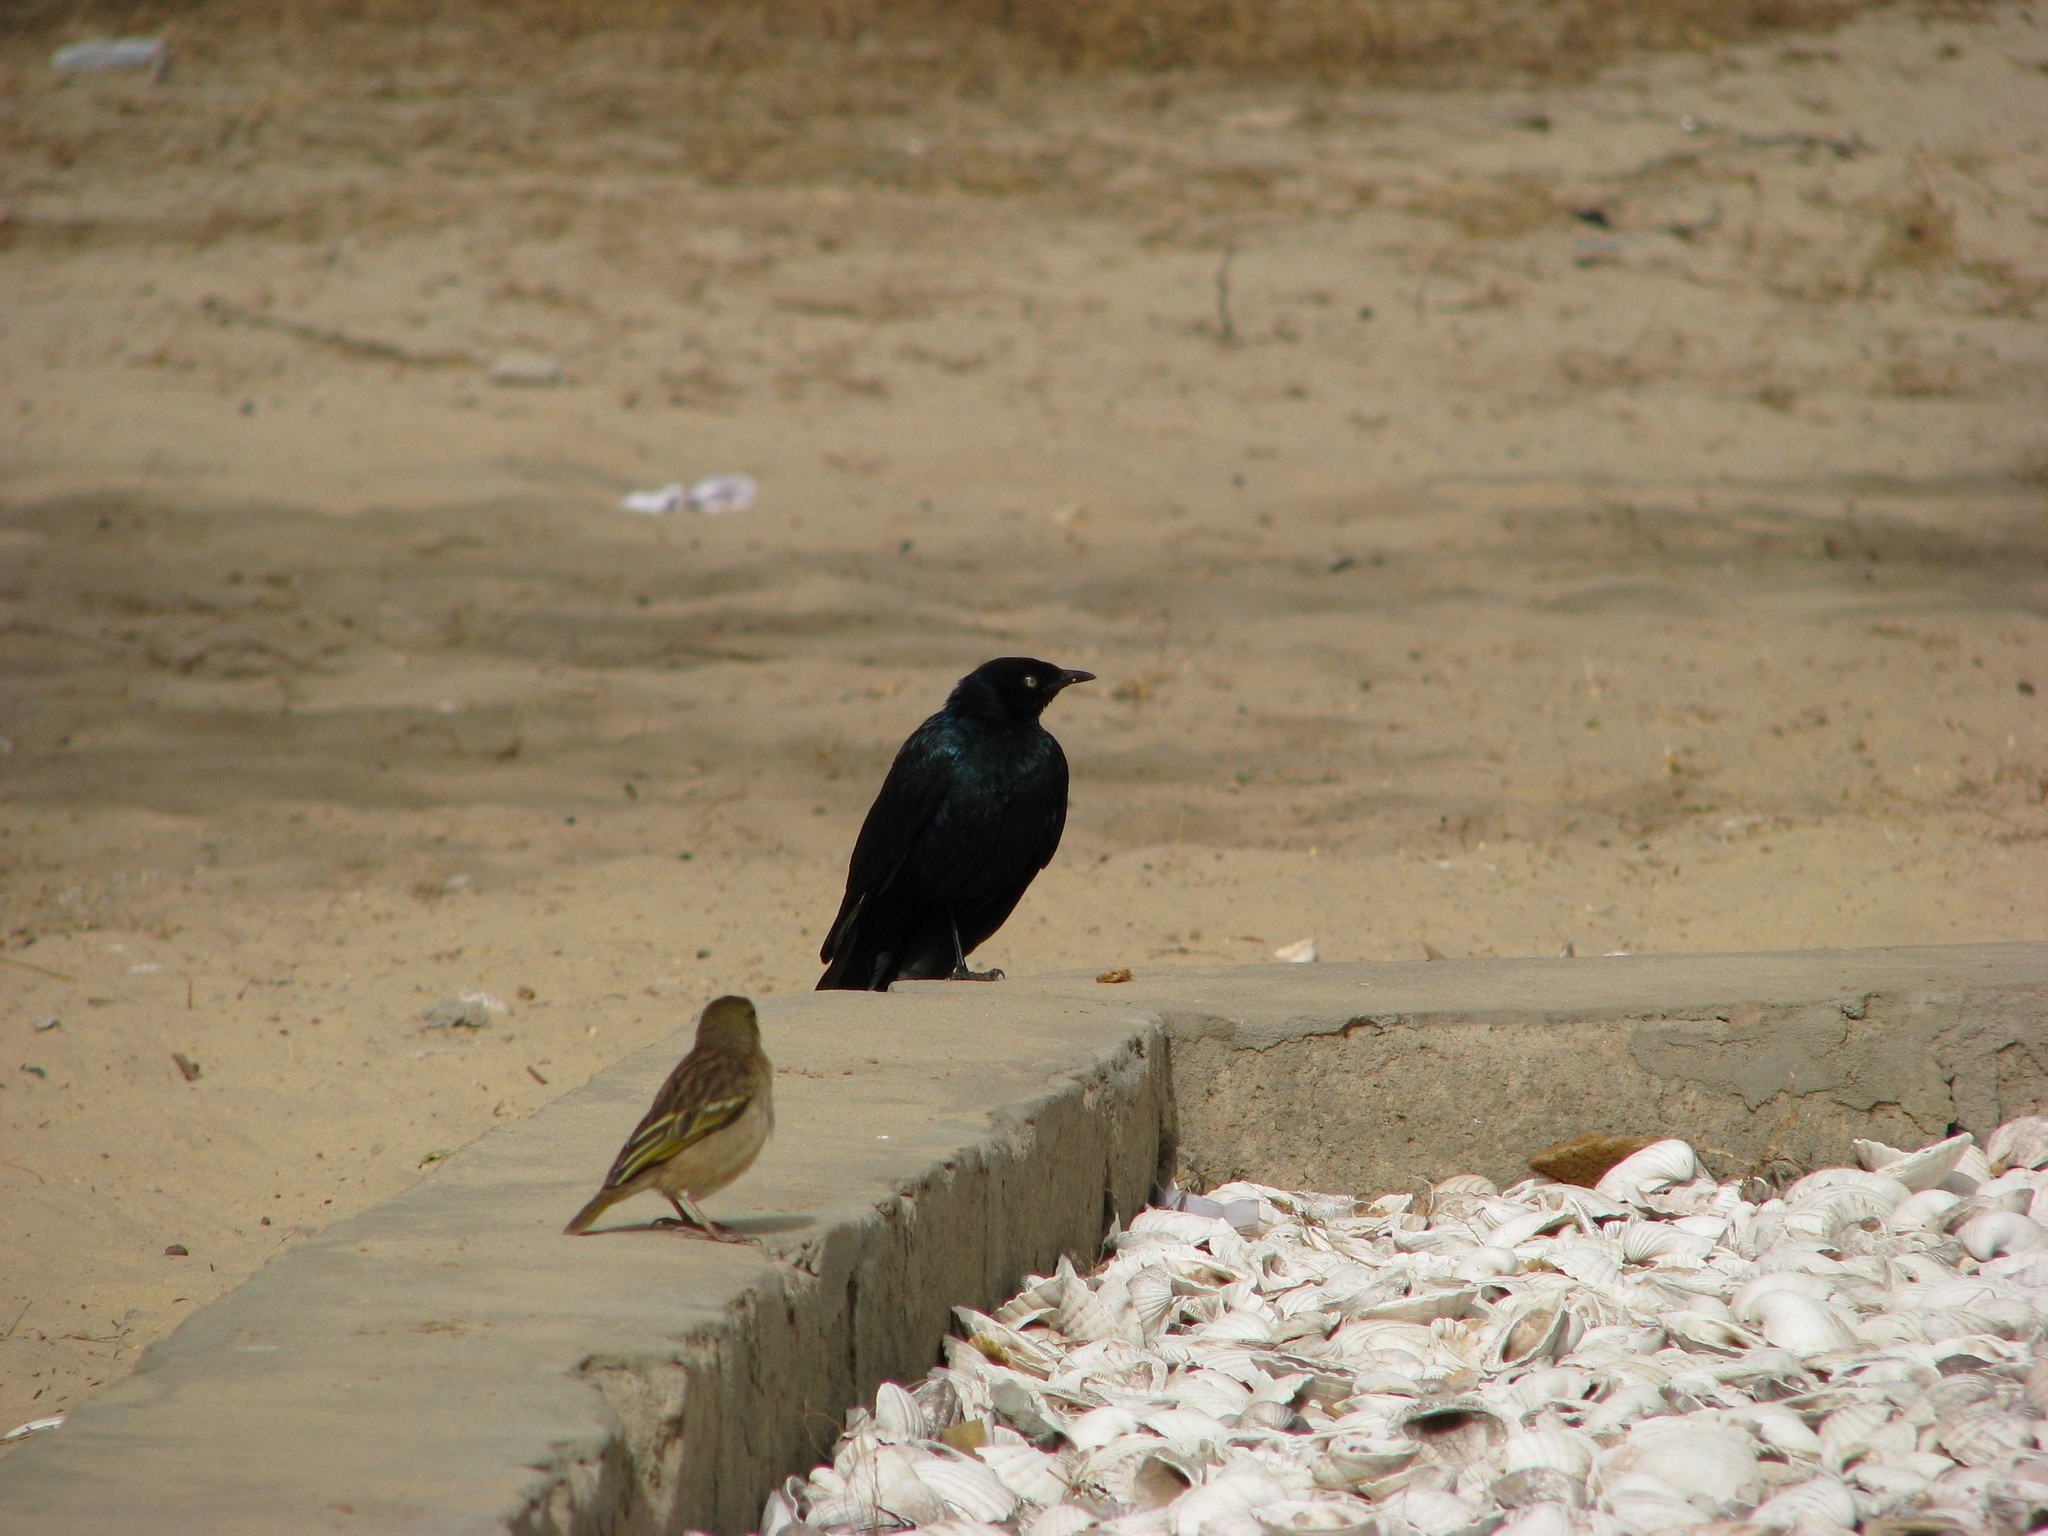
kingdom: Animalia
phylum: Chordata
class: Aves
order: Passeriformes
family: Sturnidae
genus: Lamprotornis
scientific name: Lamprotornis caudatus
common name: Long-tailed glossy starling
